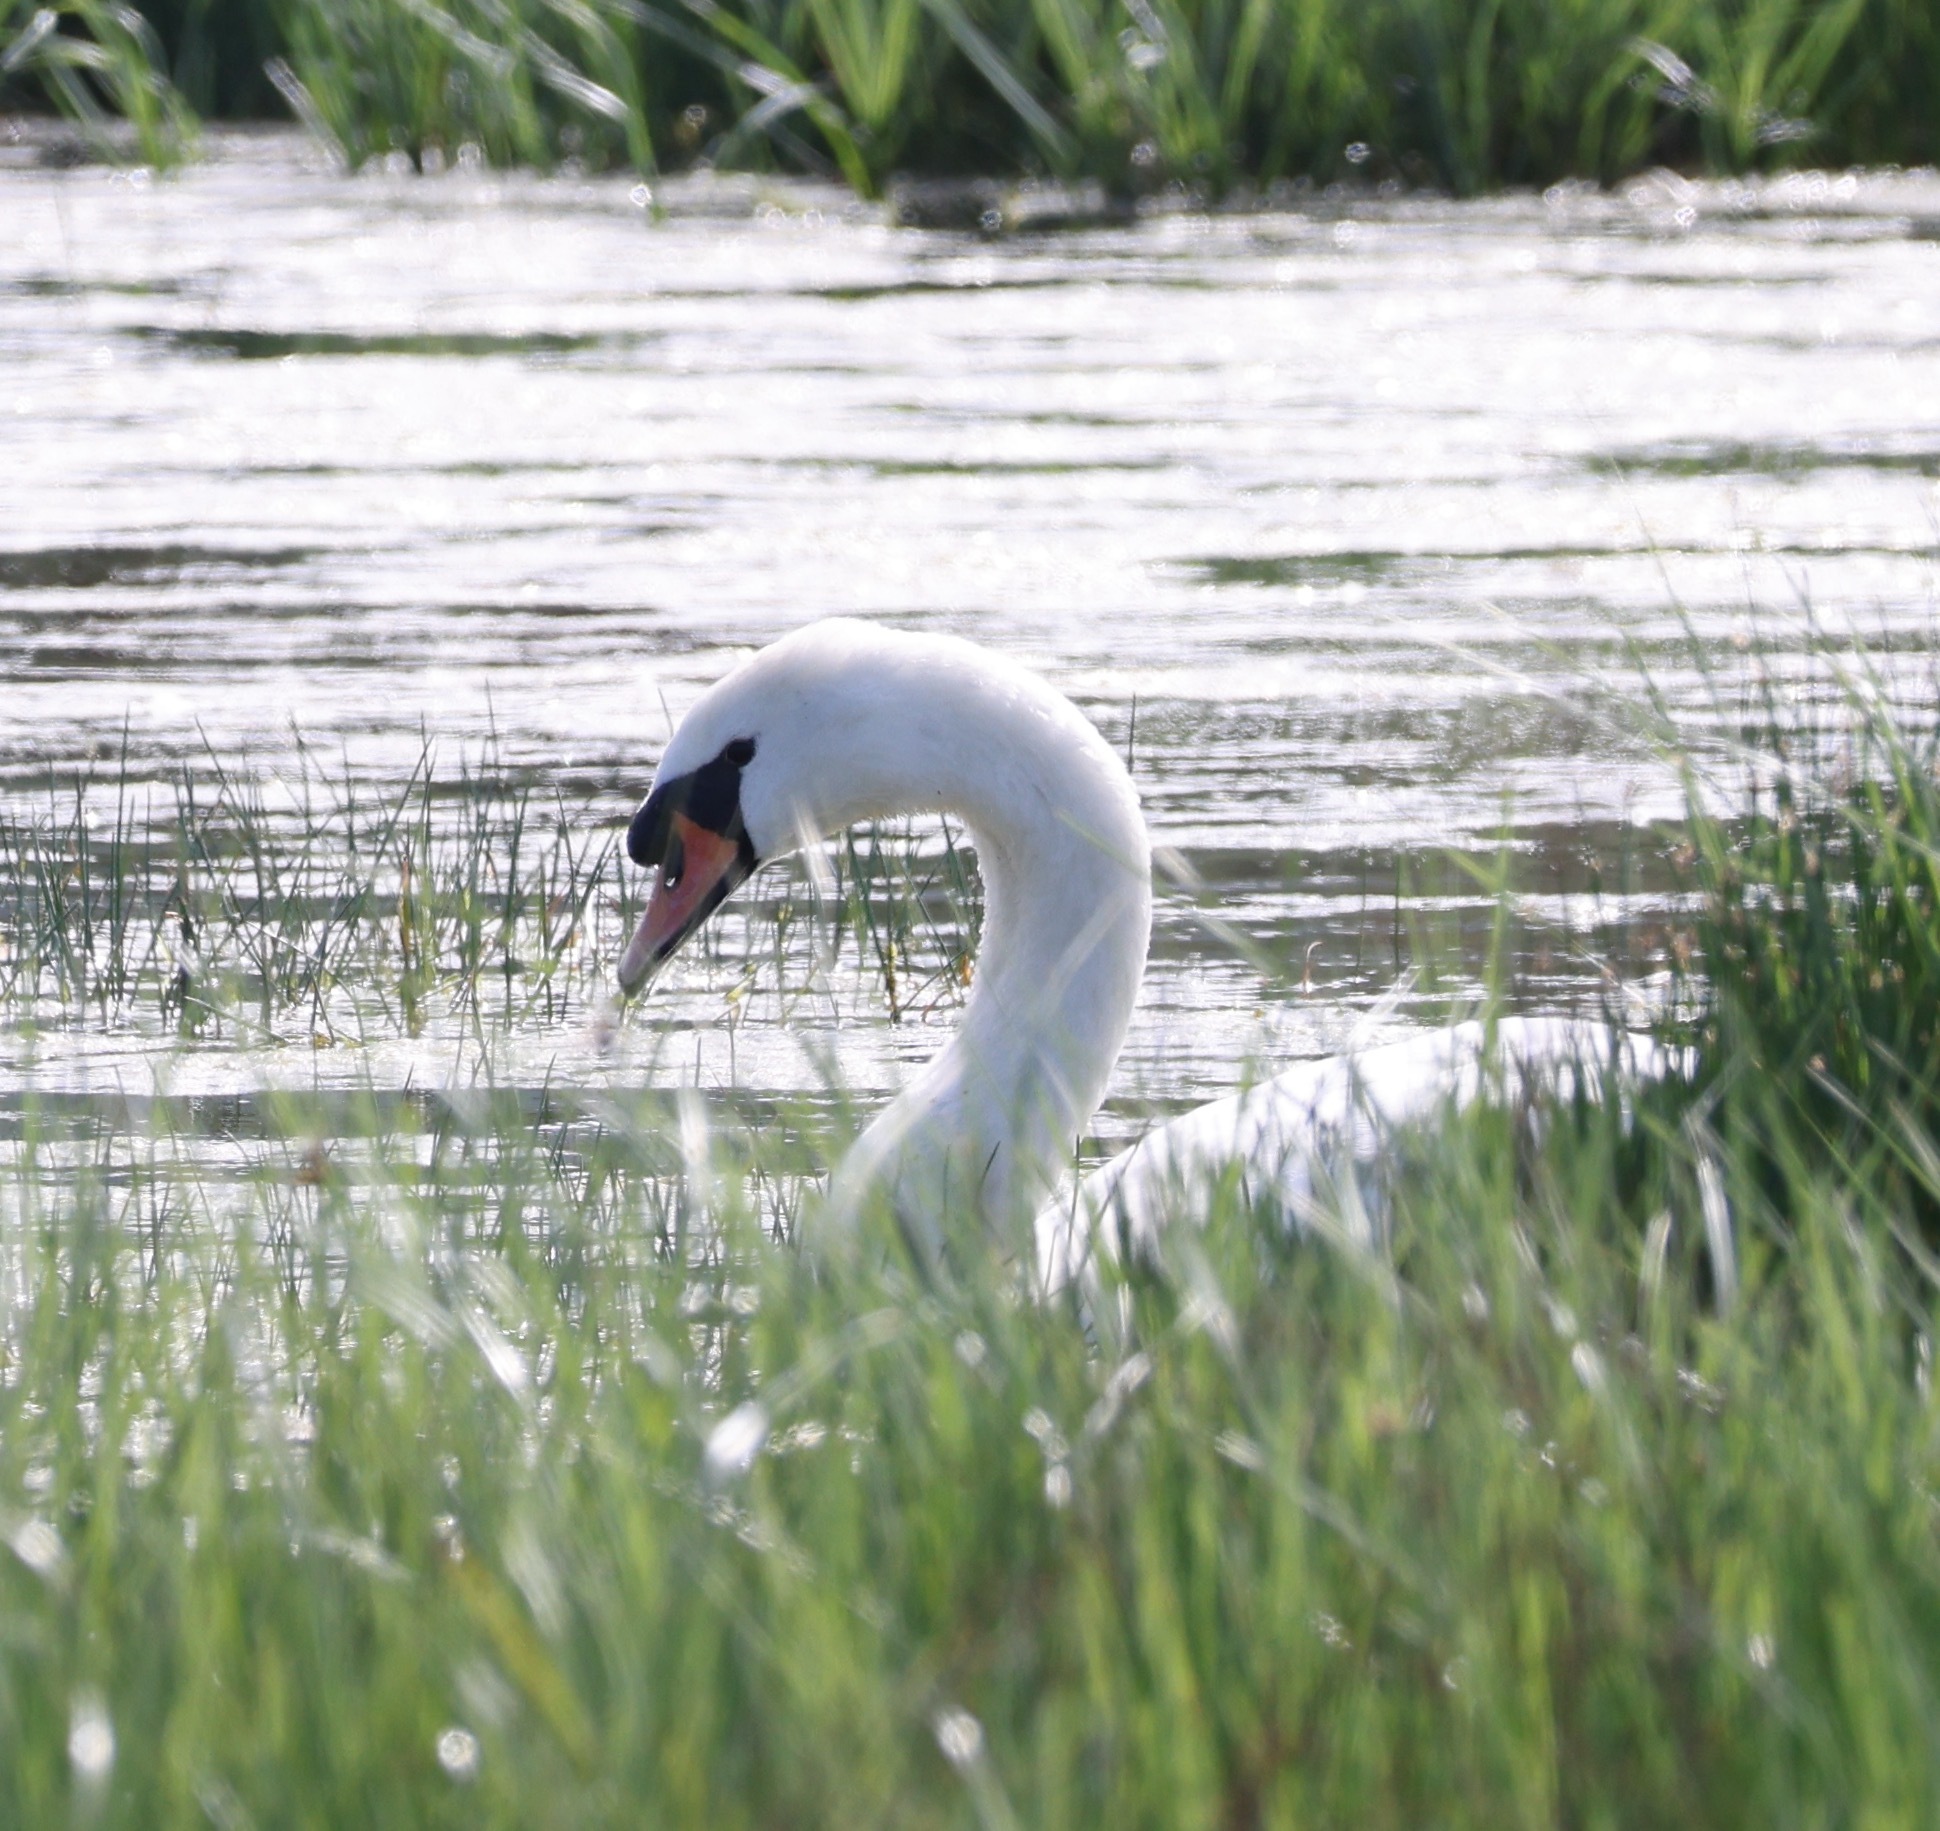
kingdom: Animalia
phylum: Chordata
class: Aves
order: Anseriformes
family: Anatidae
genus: Cygnus
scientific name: Cygnus olor
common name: Mute swan
